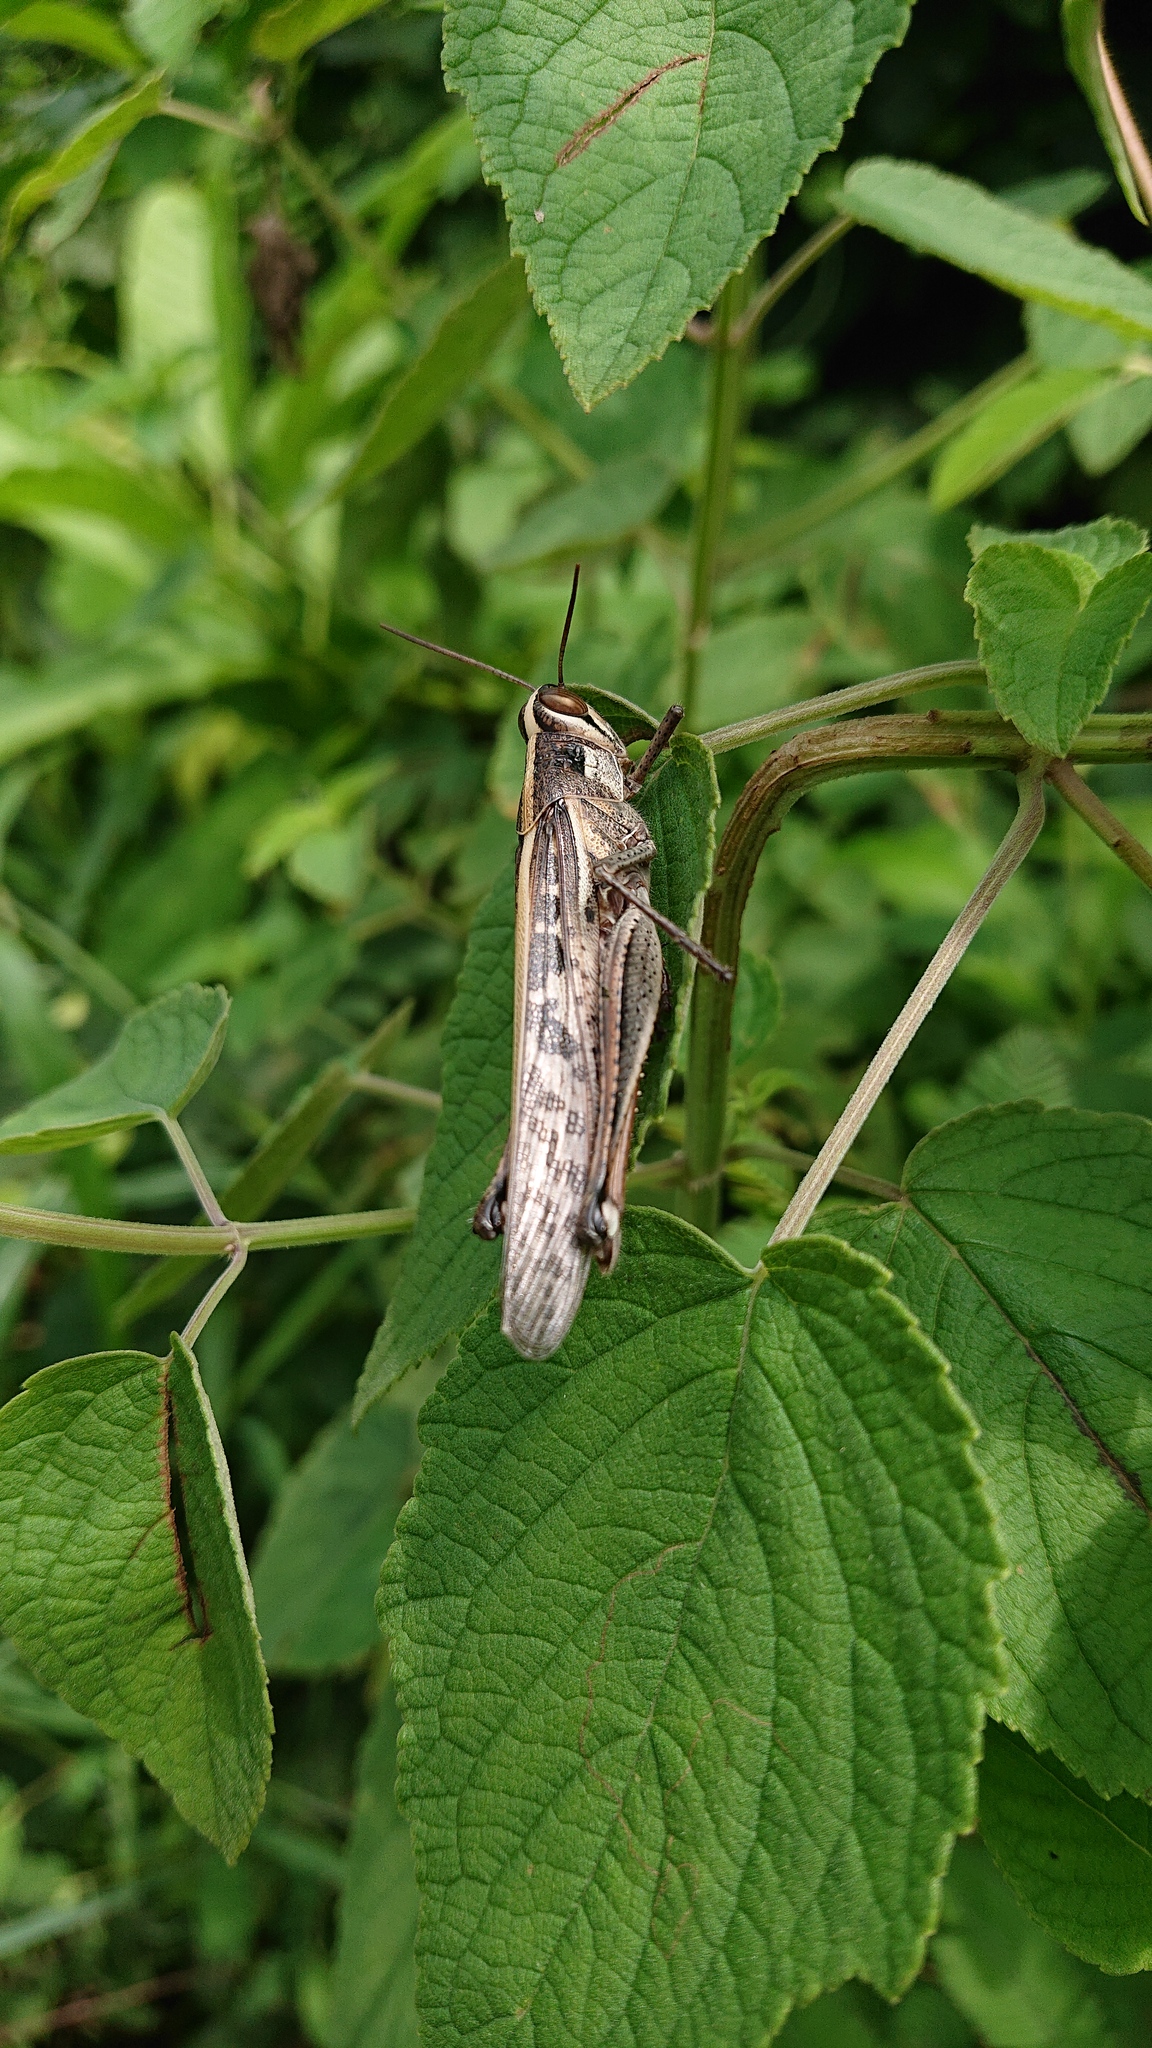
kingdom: Animalia
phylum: Arthropoda
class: Insecta
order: Orthoptera
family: Acrididae
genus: Schistocerca
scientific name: Schistocerca subspurcata
